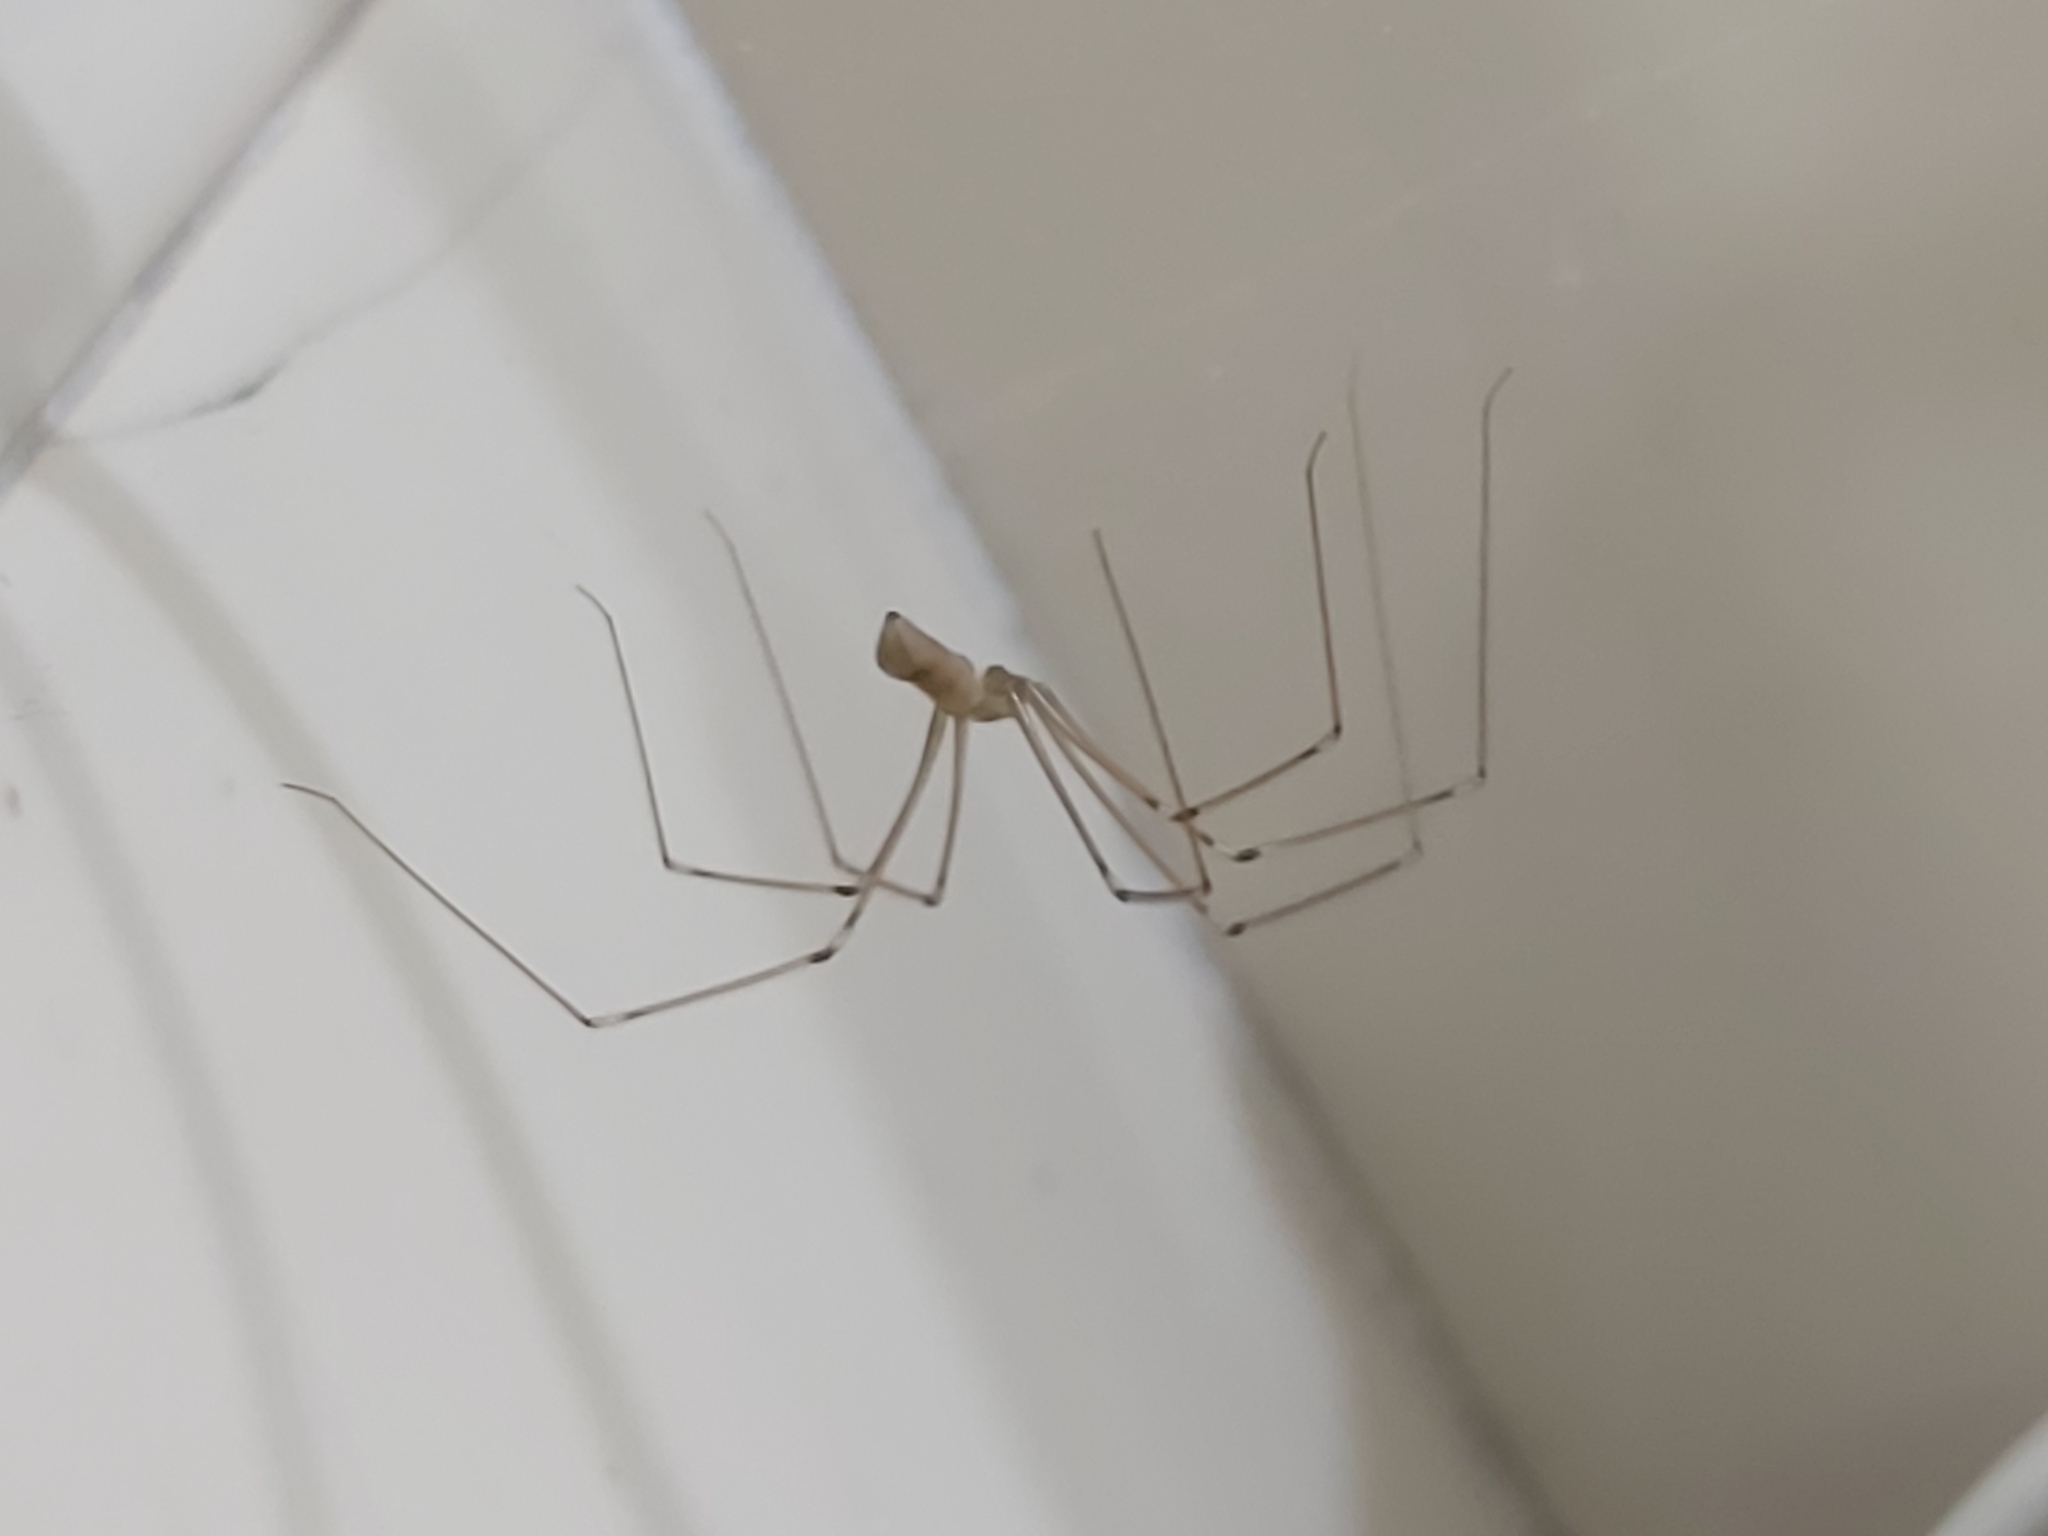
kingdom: Animalia
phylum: Arthropoda
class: Arachnida
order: Araneae
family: Pholcidae
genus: Pholcus
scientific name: Pholcus phalangioides
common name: Longbodied cellar spider
